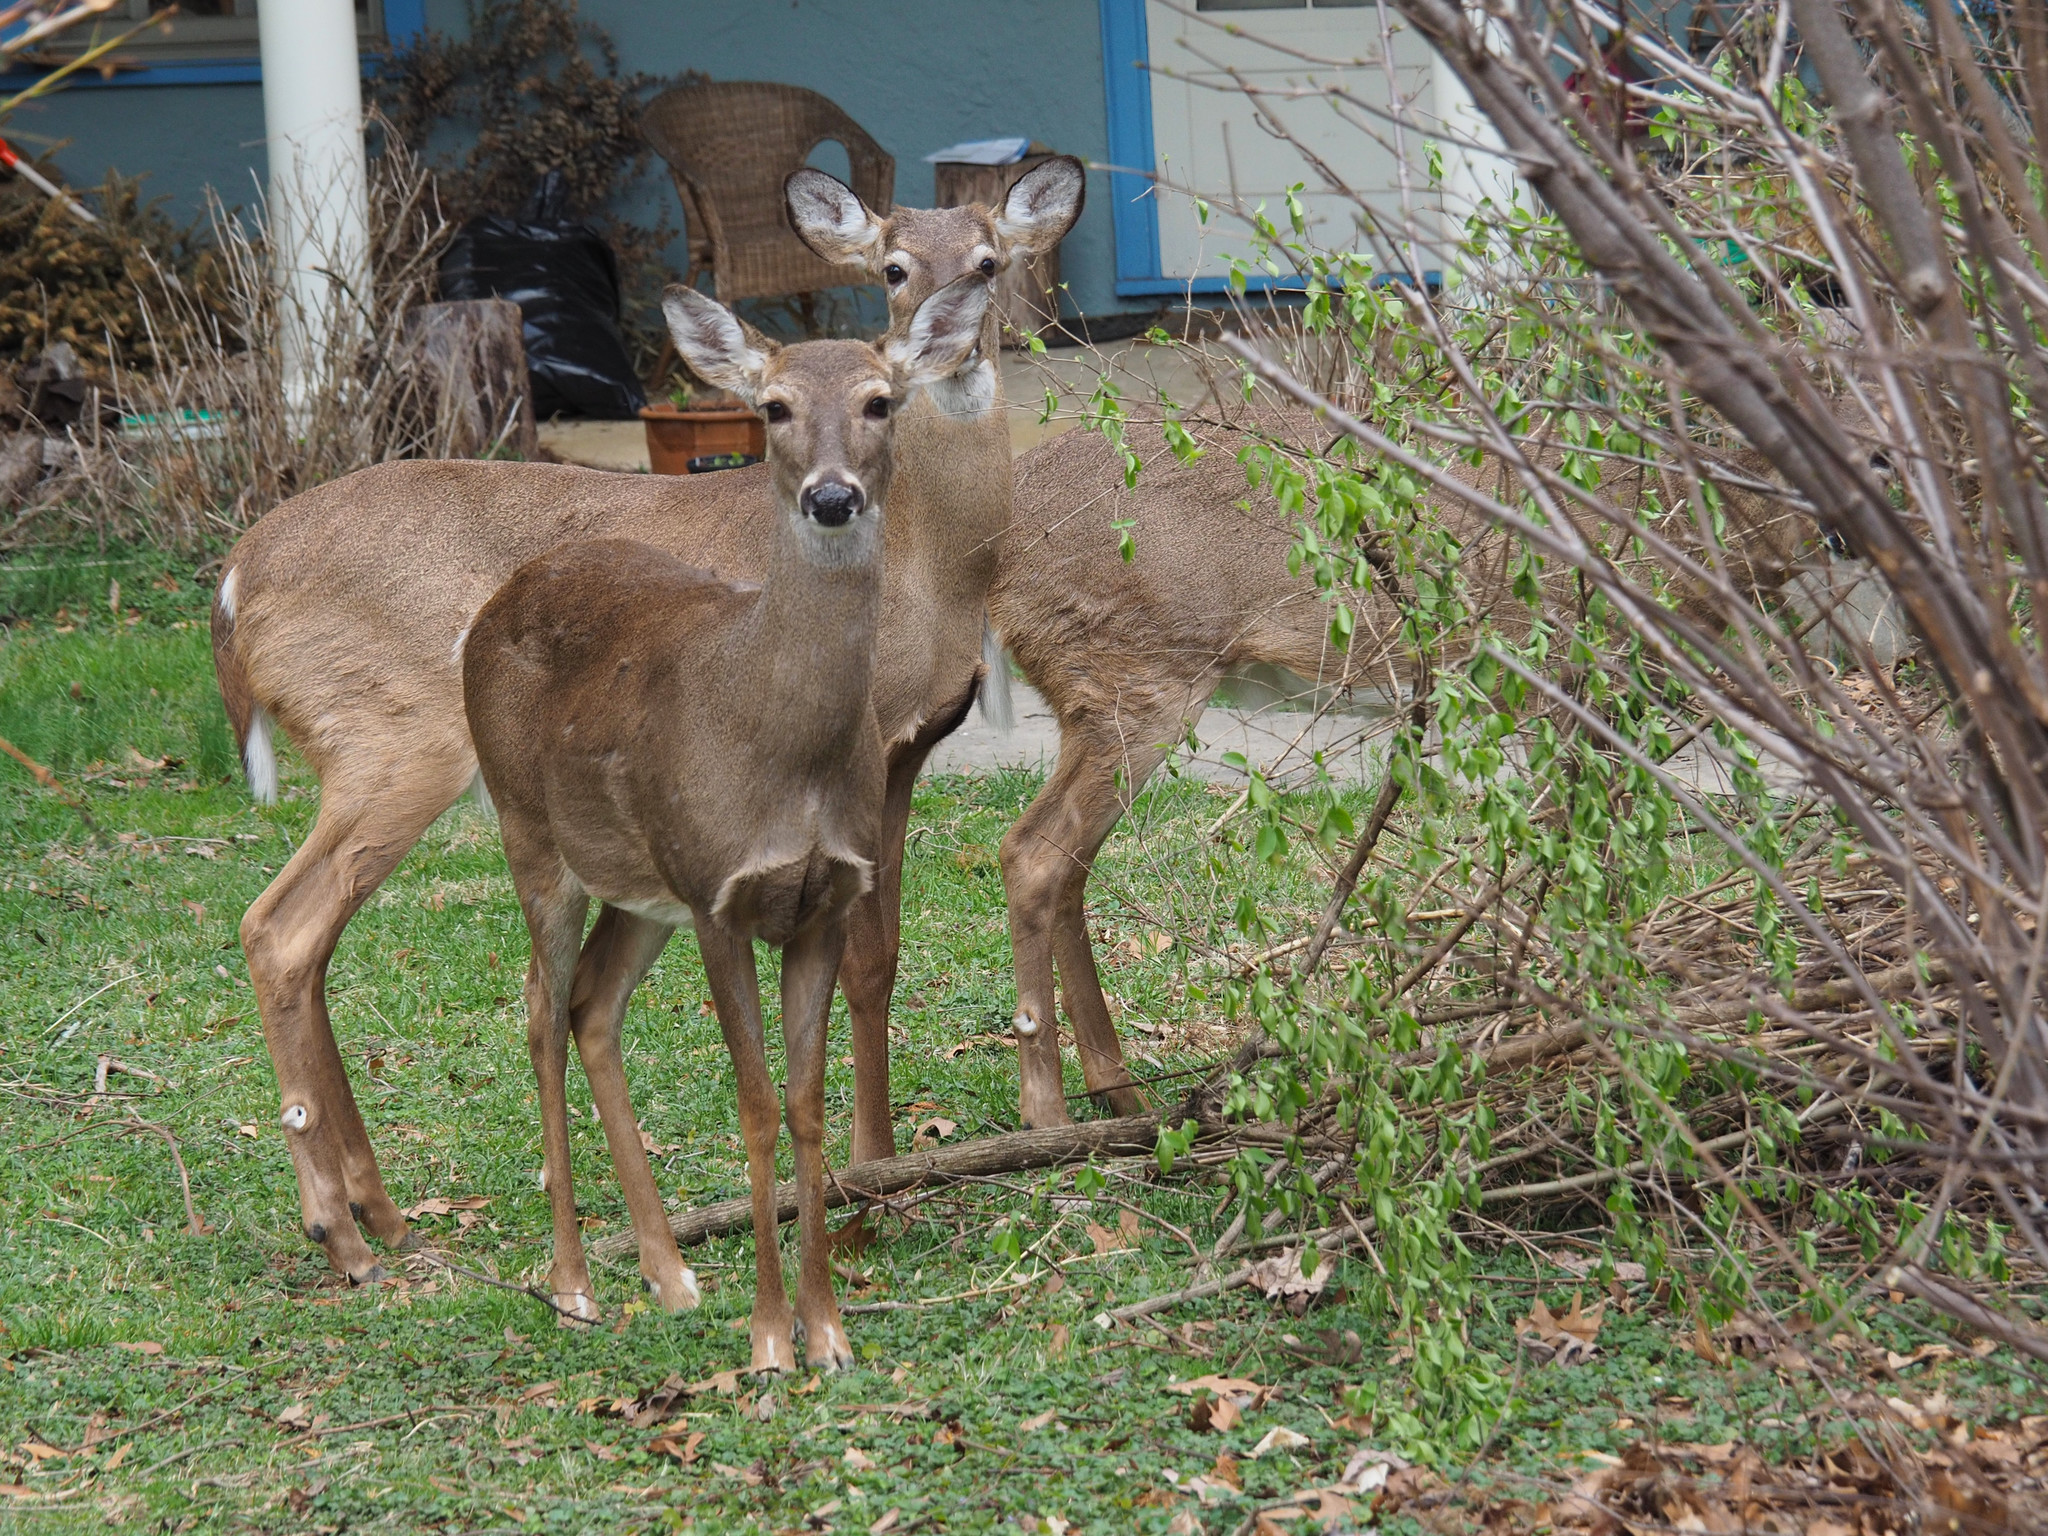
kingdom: Animalia
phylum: Chordata
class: Mammalia
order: Artiodactyla
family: Cervidae
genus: Odocoileus
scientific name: Odocoileus virginianus
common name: White-tailed deer
